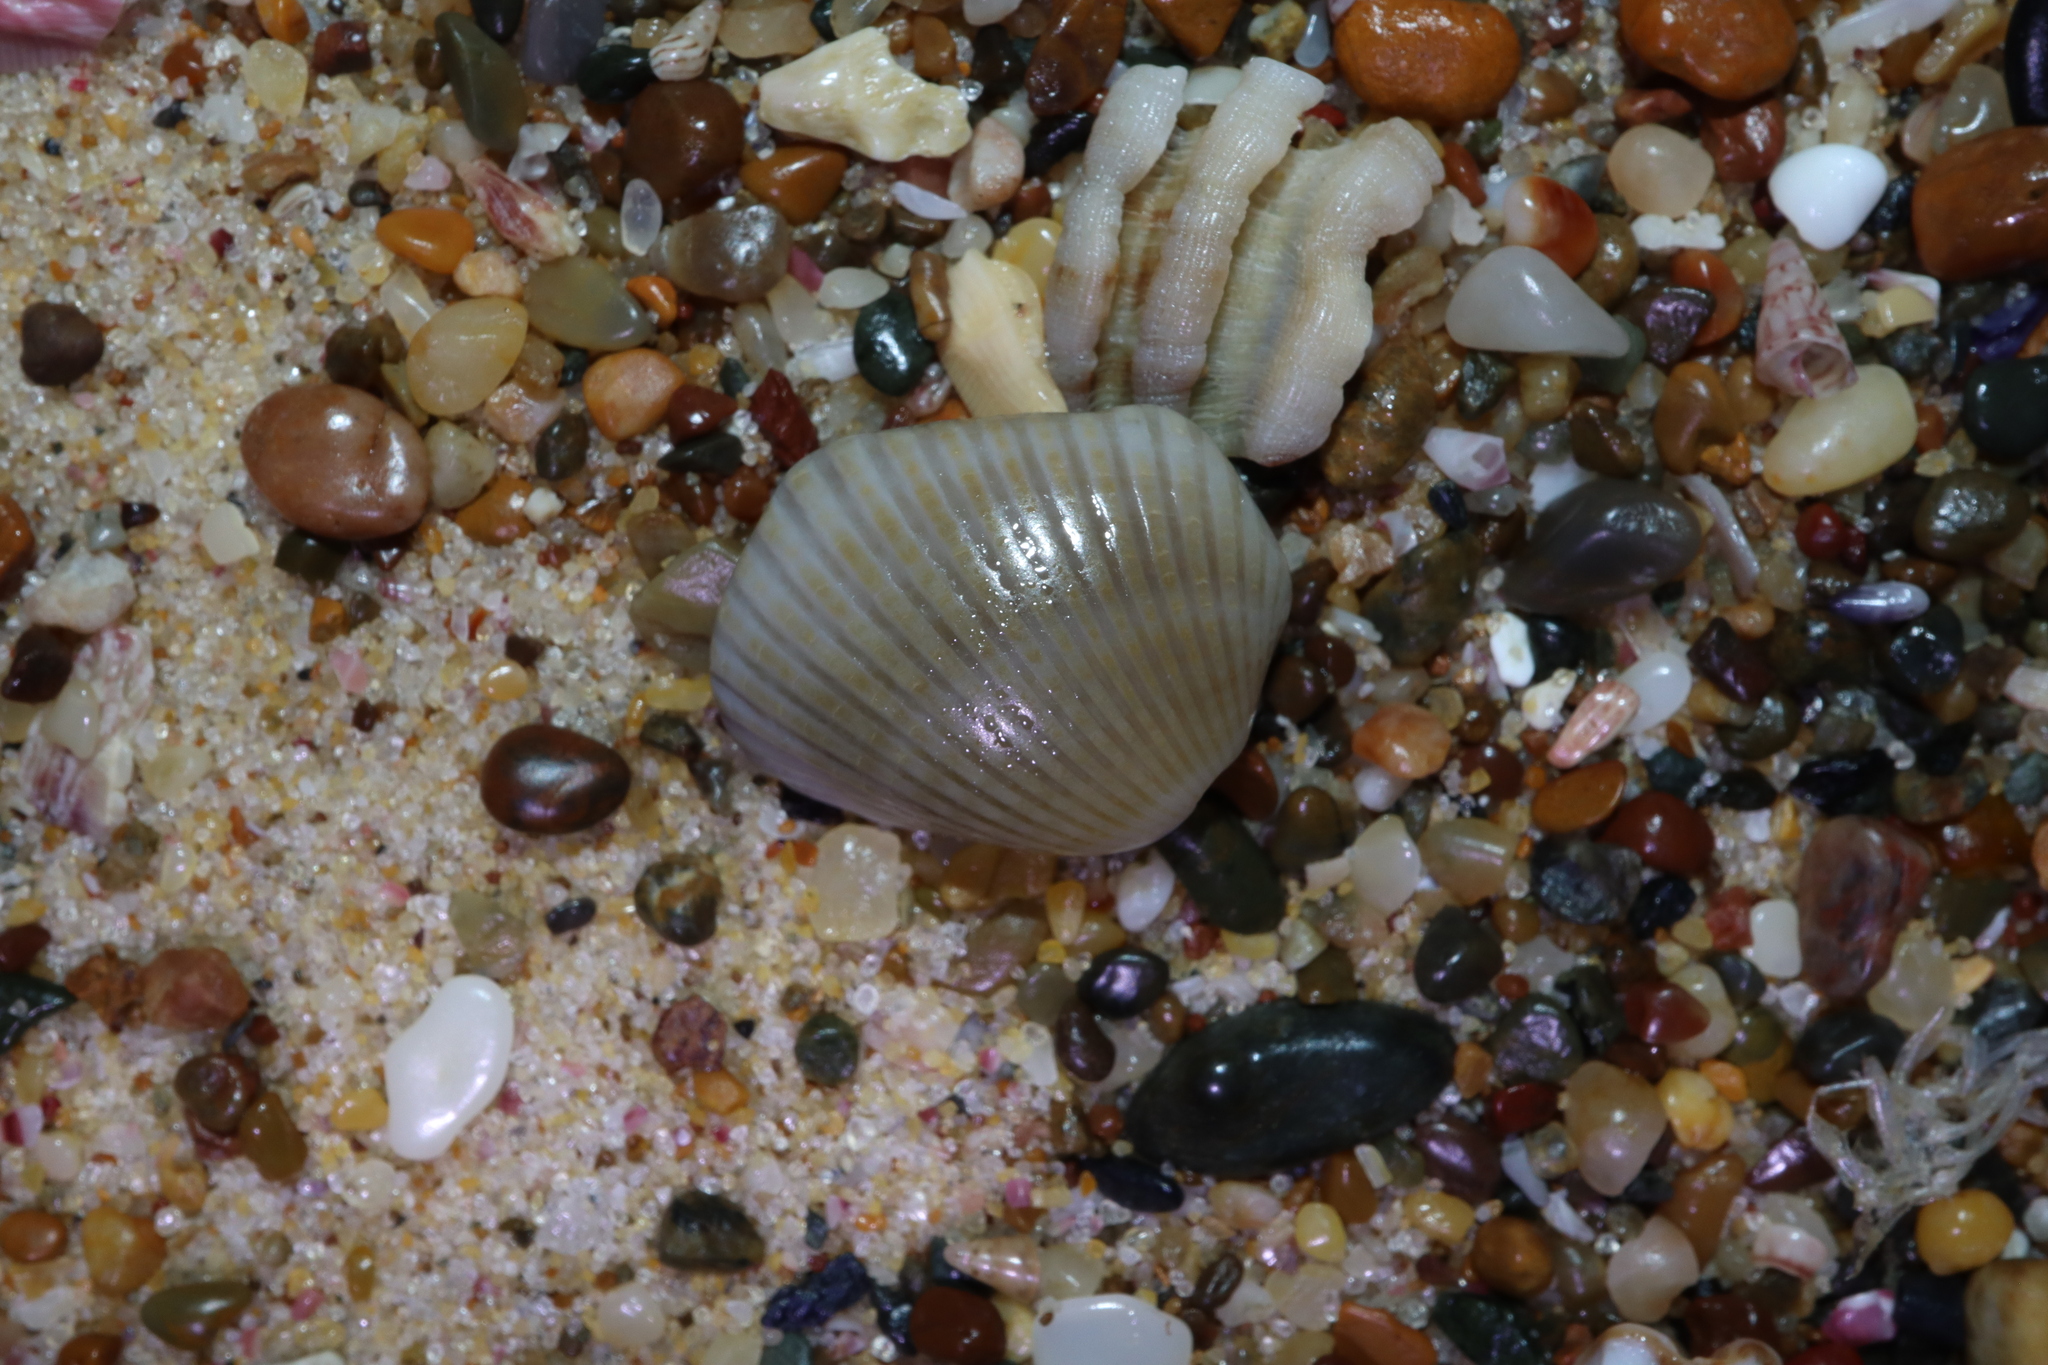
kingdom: Animalia
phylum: Mollusca
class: Bivalvia
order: Arcida
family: Arcidae
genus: Anadara
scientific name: Anadara trapezia
